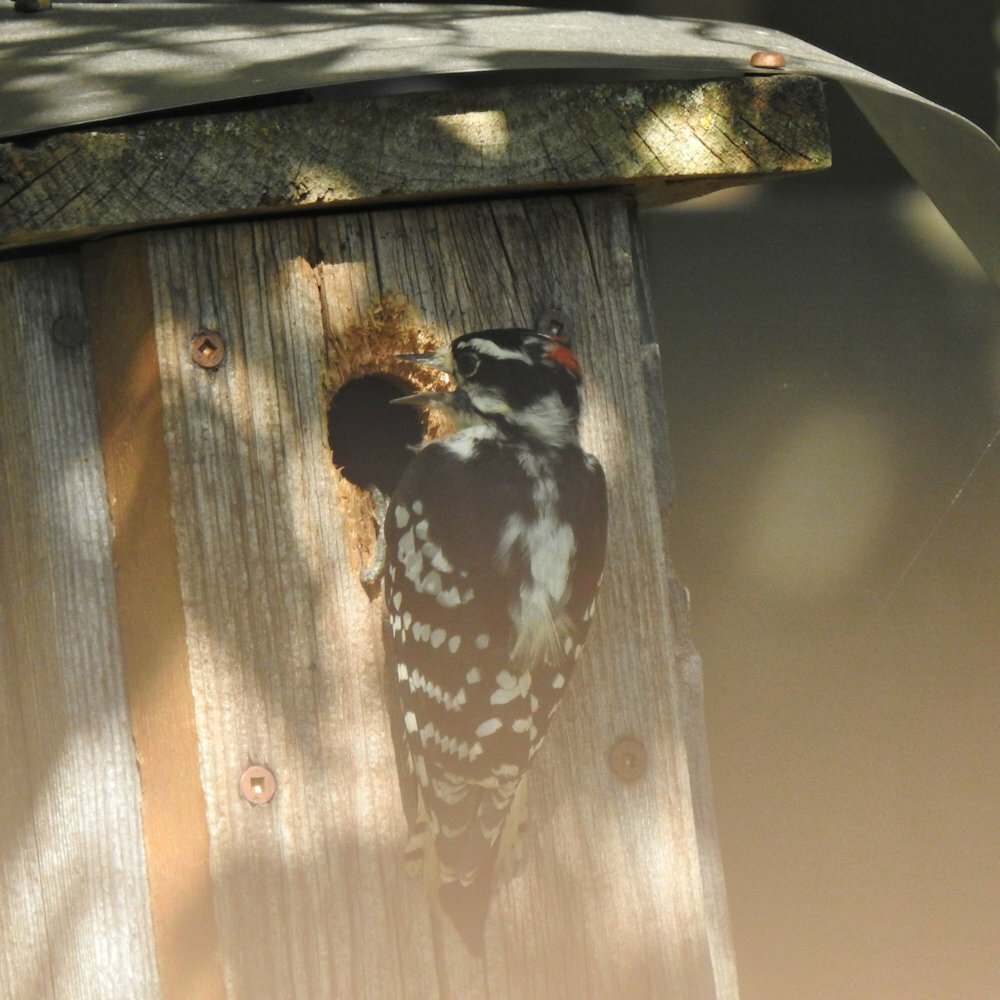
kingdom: Animalia
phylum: Chordata
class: Aves
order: Piciformes
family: Picidae
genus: Dryobates
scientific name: Dryobates pubescens
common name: Downy woodpecker
